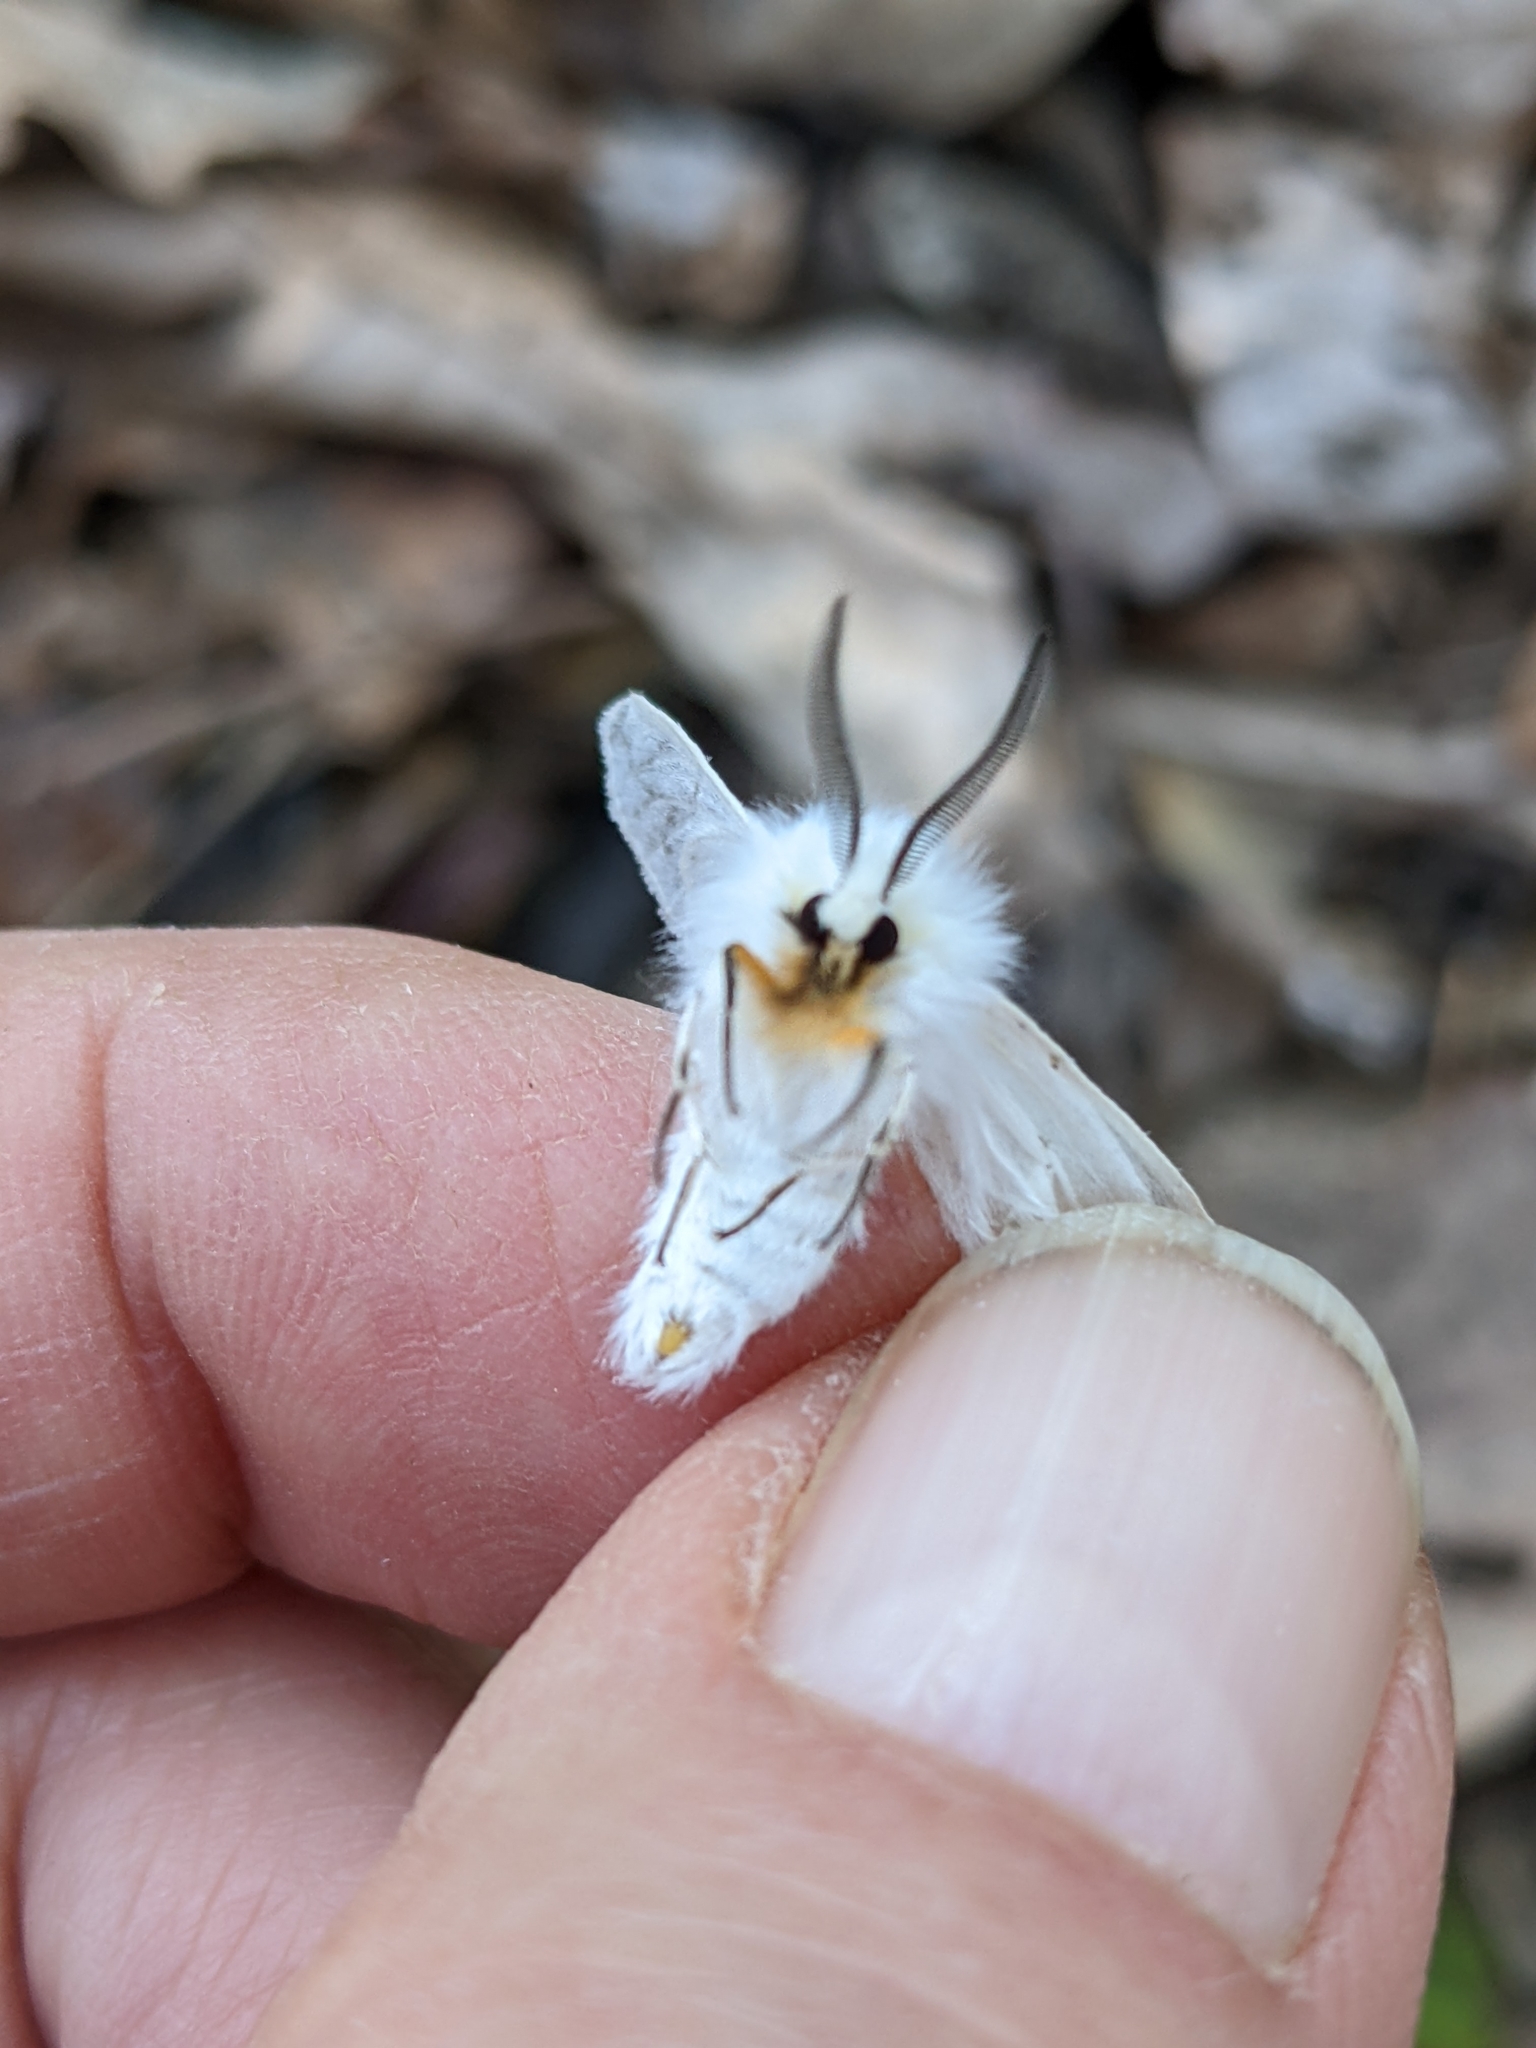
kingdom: Animalia
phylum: Arthropoda
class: Insecta
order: Lepidoptera
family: Erebidae
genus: Spilosoma
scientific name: Spilosoma congrua
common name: Agreeable tiger moth
